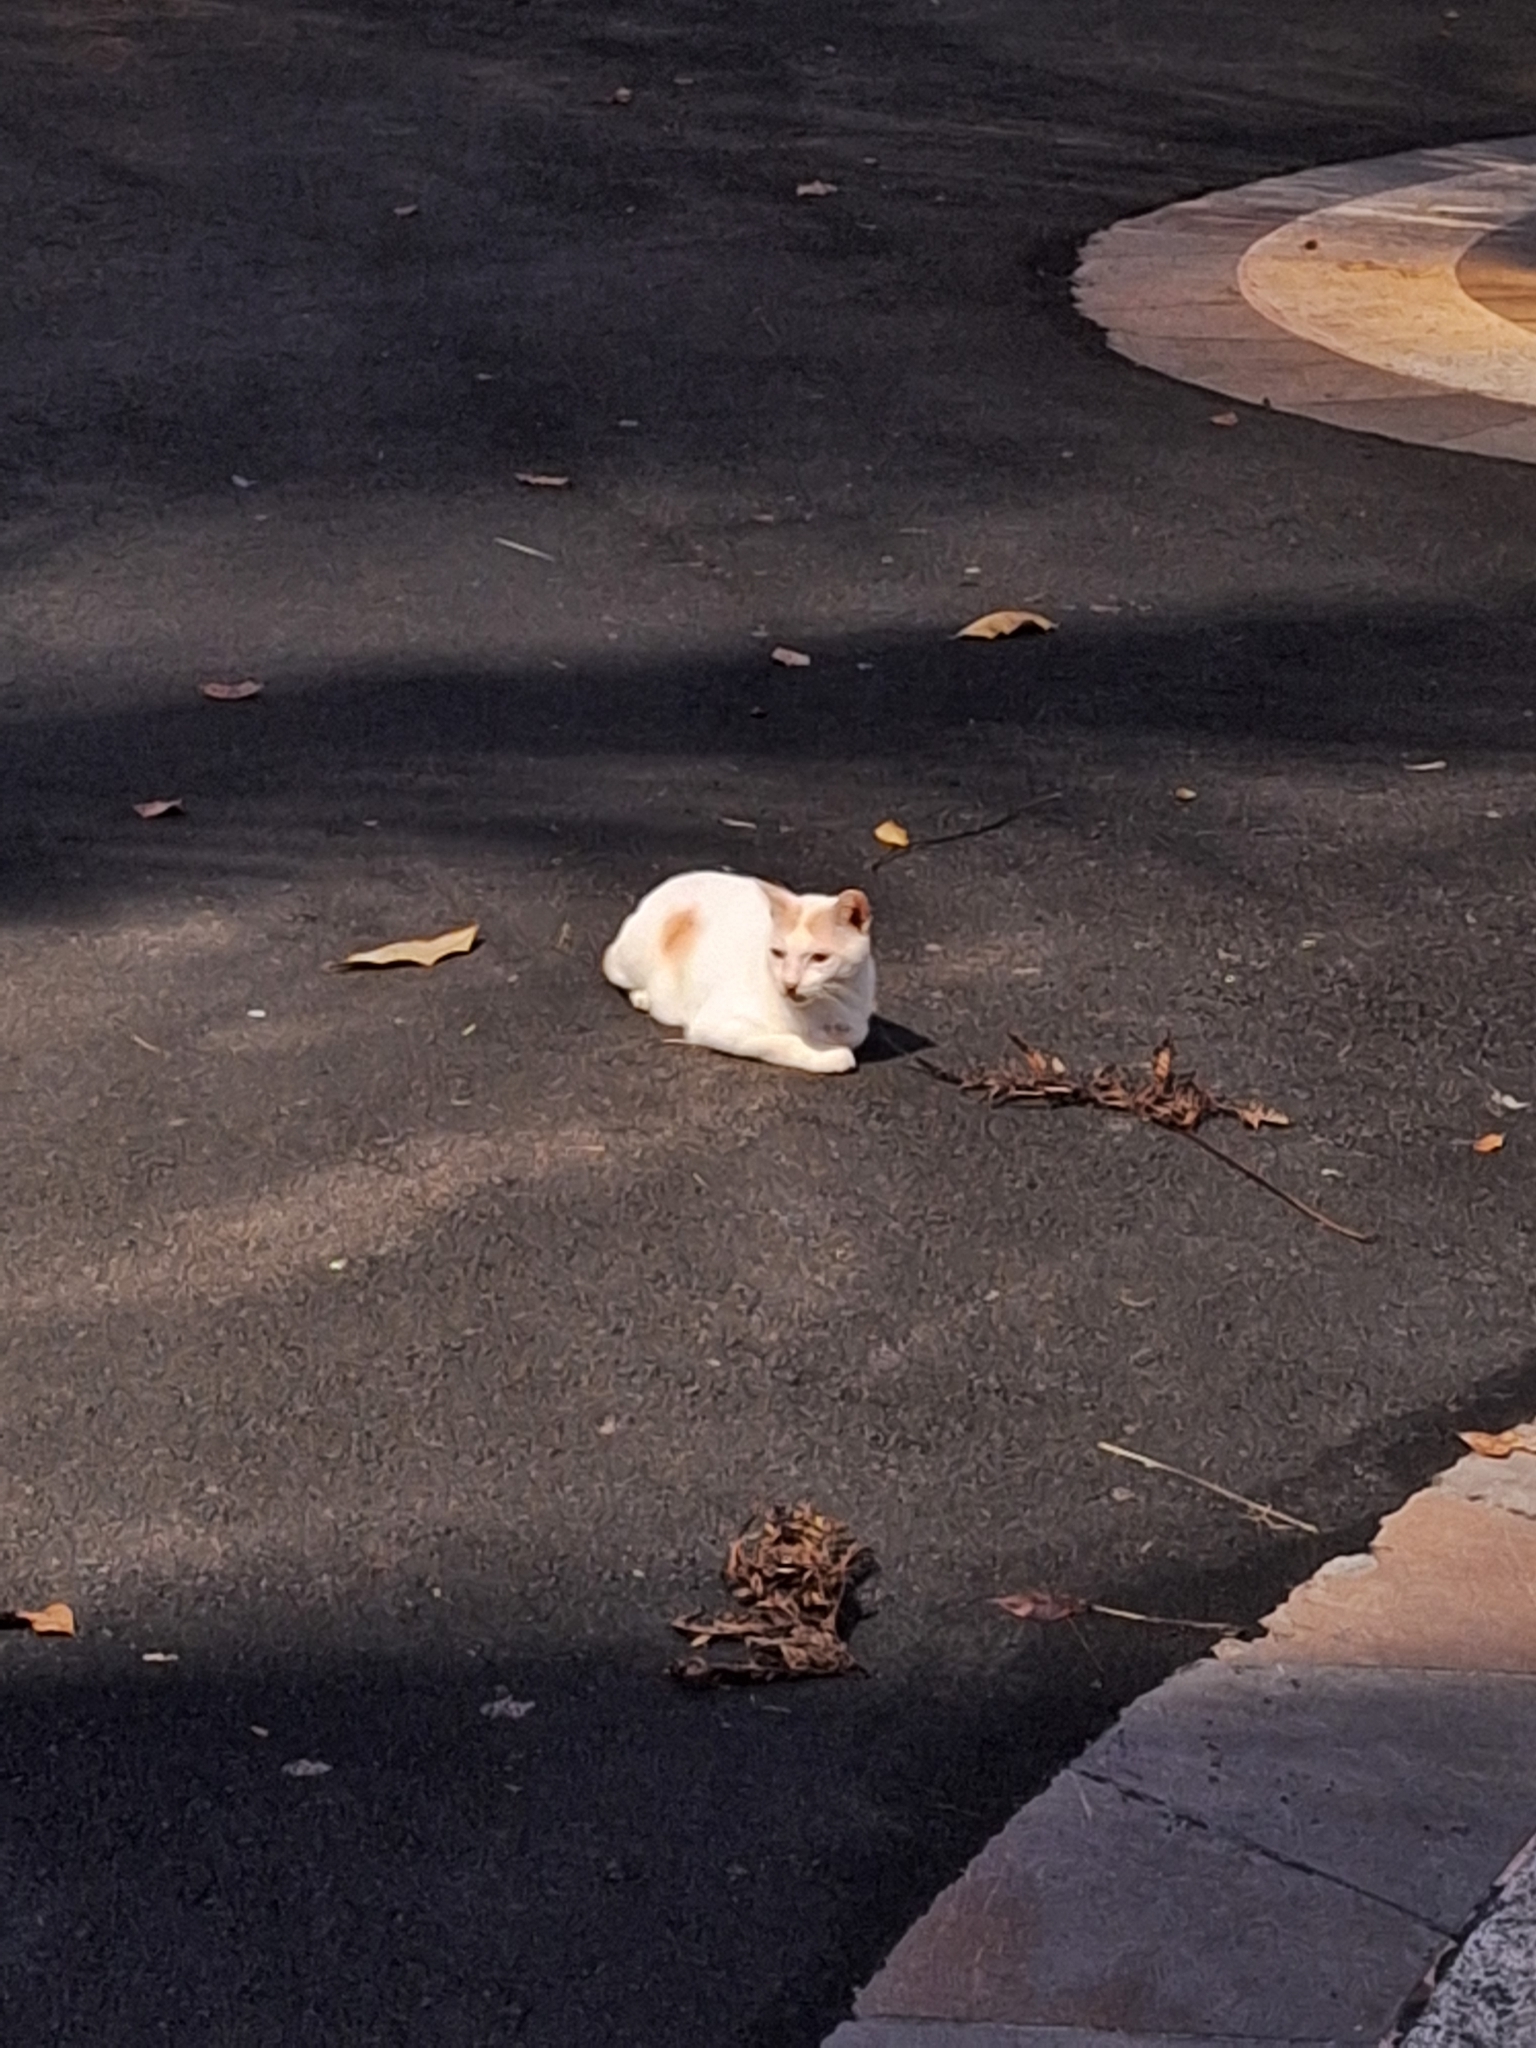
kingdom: Animalia
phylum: Chordata
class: Mammalia
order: Carnivora
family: Felidae
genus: Felis
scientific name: Felis catus
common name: Domestic cat
